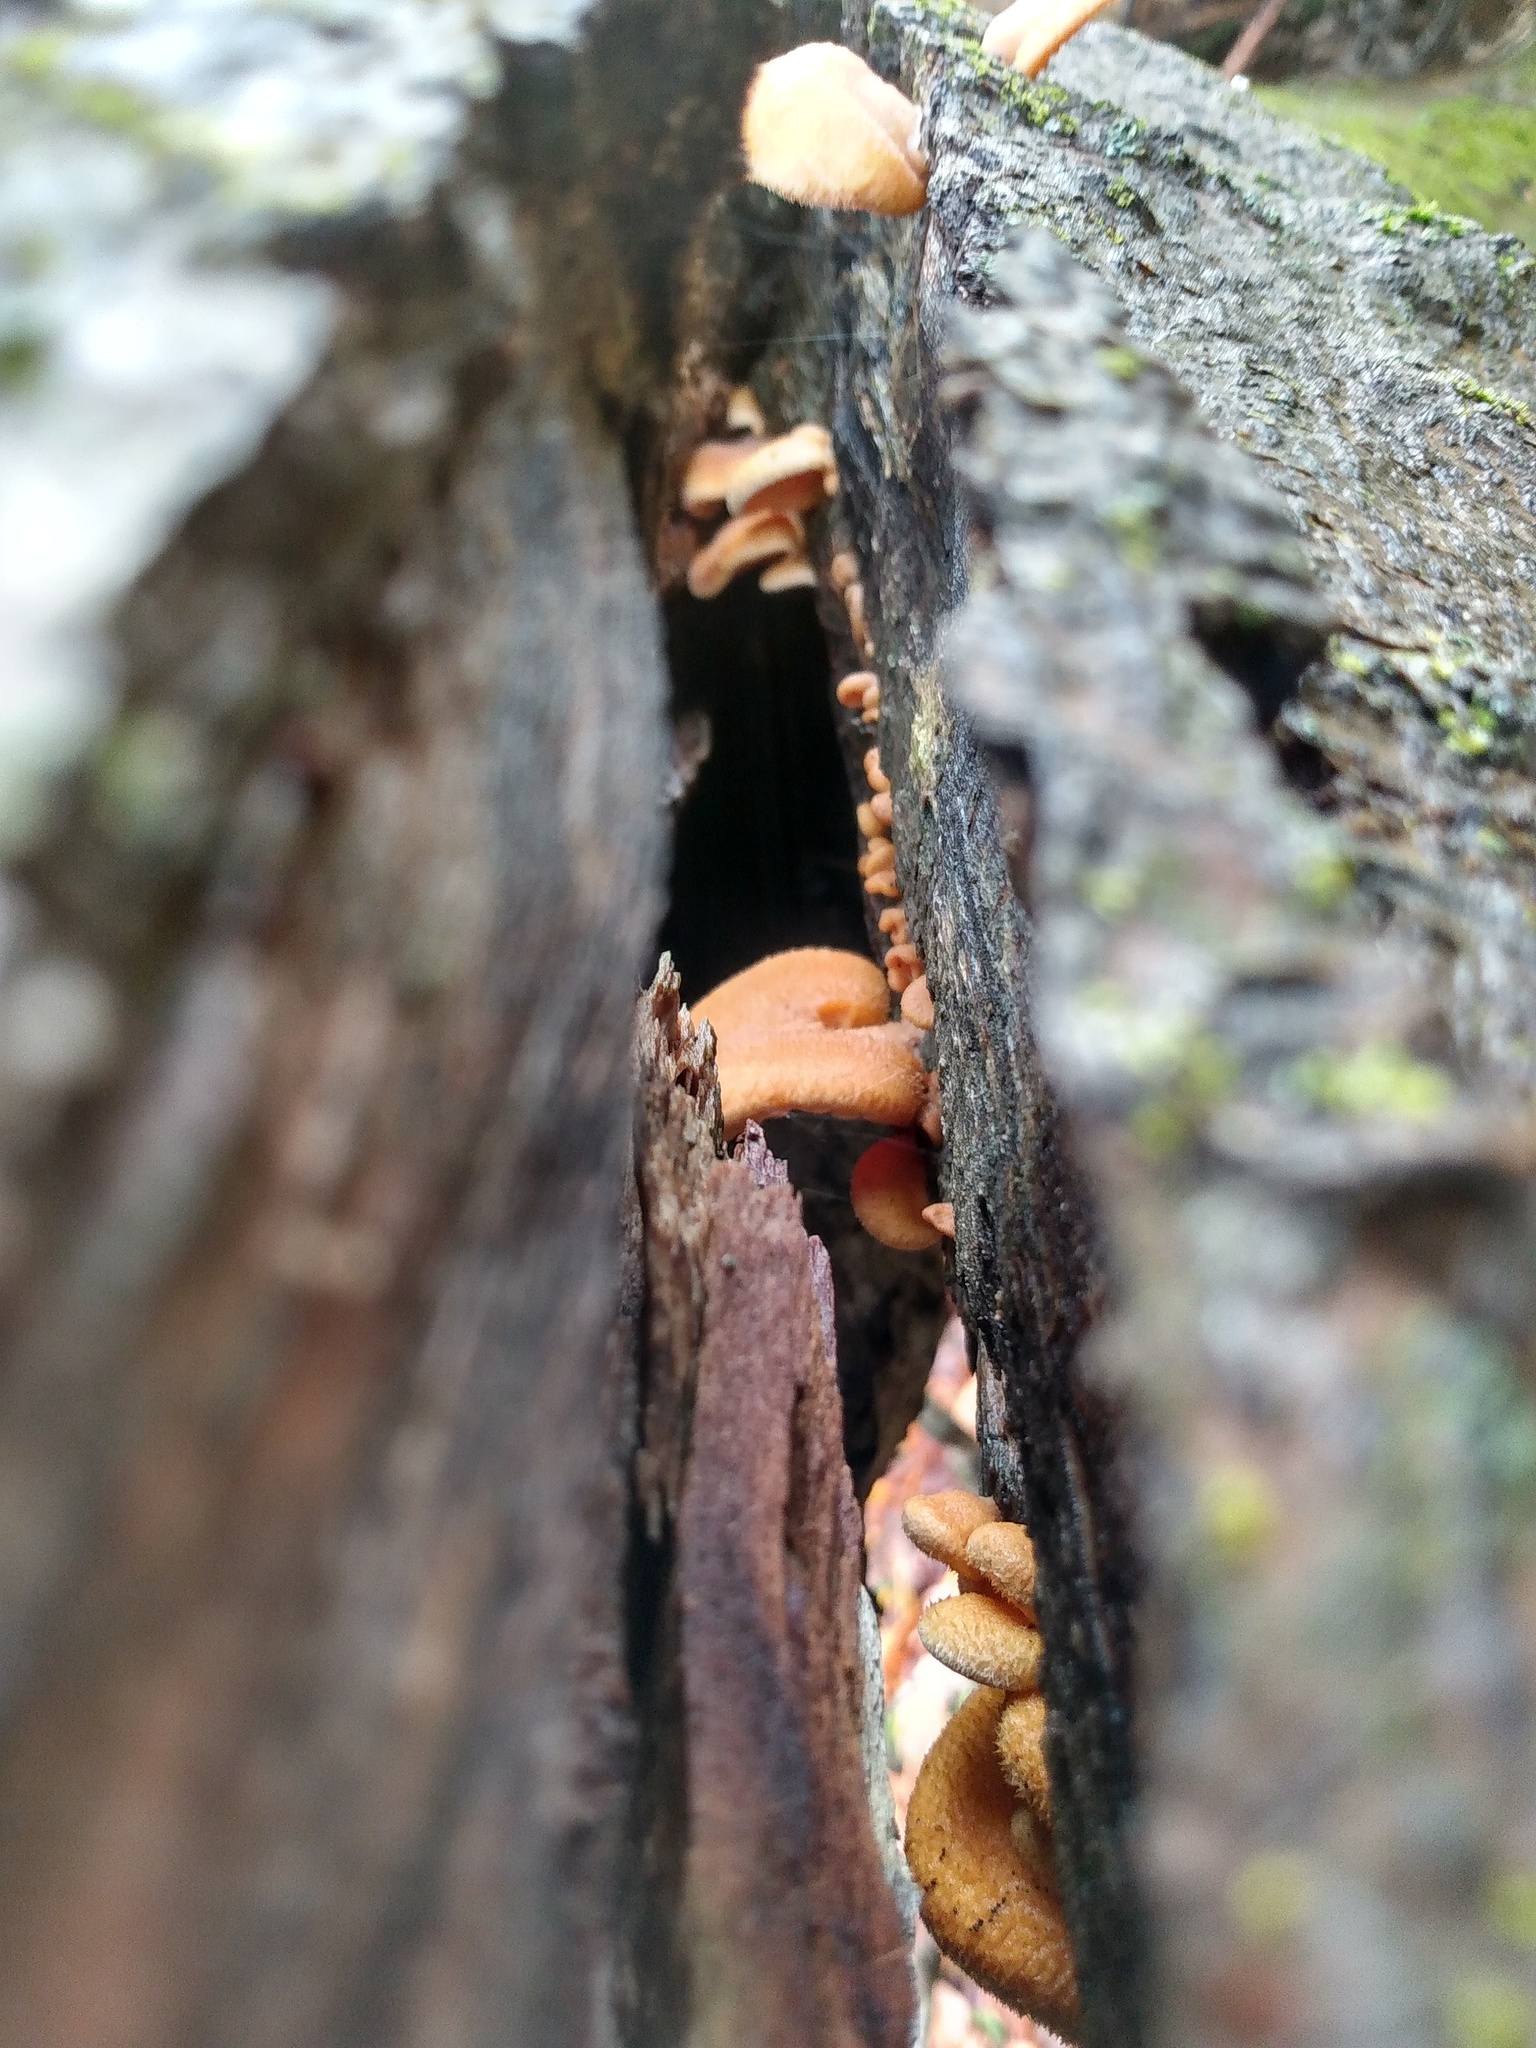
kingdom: Fungi
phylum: Basidiomycota
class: Agaricomycetes
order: Agaricales
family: Phyllotopsidaceae
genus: Phyllotopsis
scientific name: Phyllotopsis nidulans
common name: Orange mock oyster
